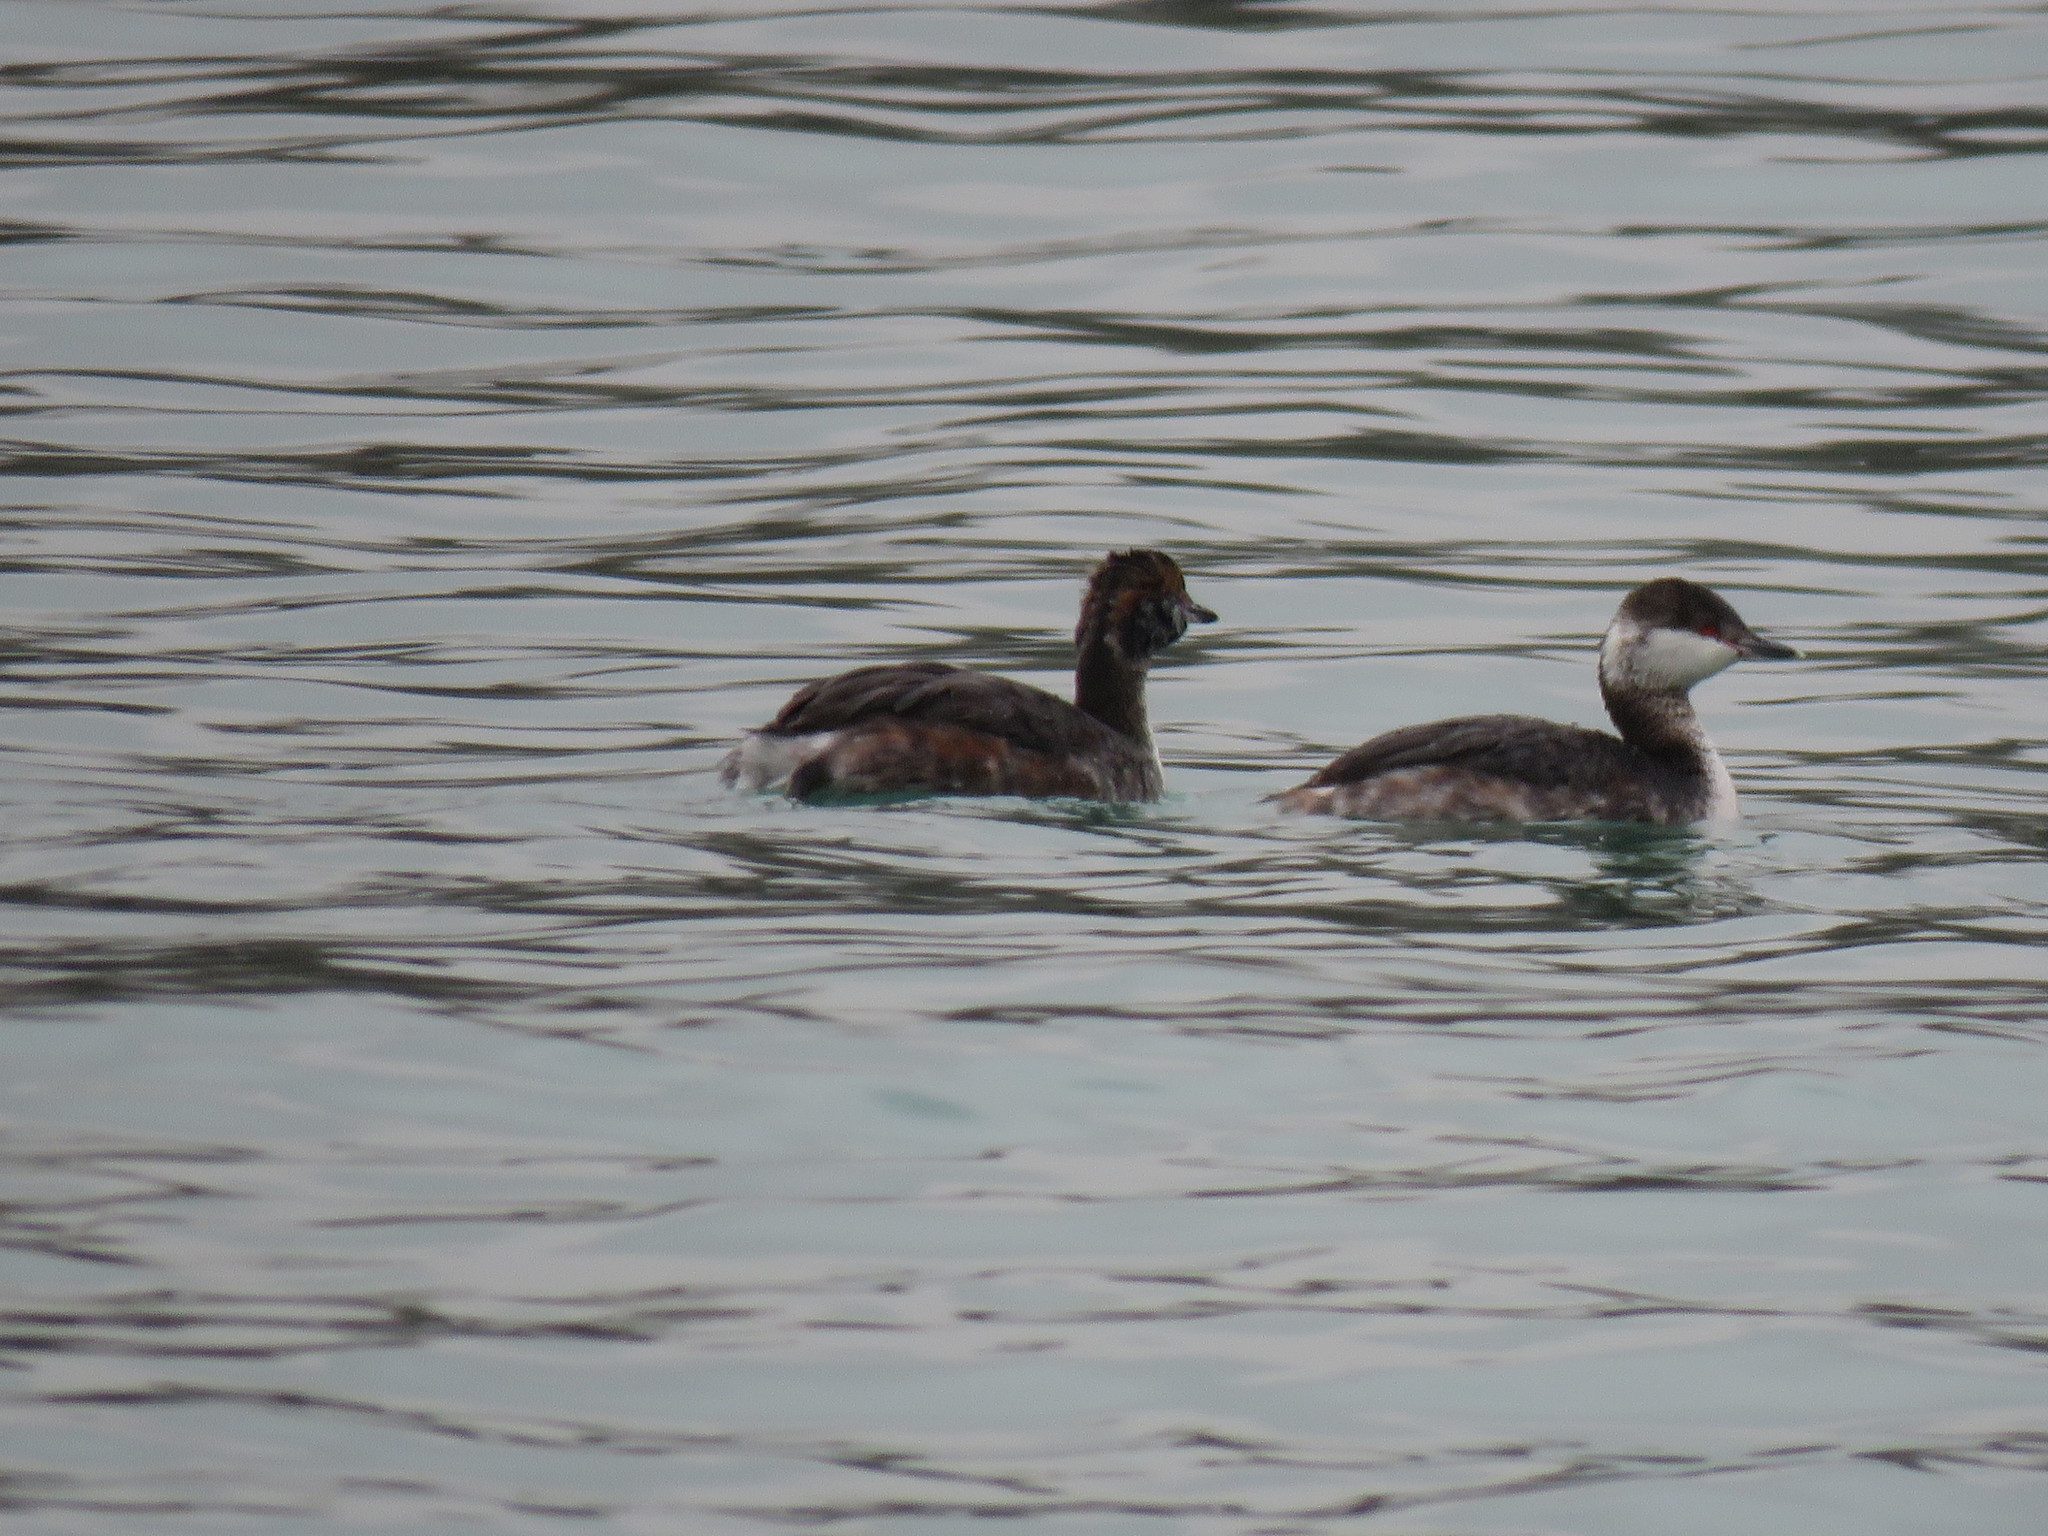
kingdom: Animalia
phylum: Chordata
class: Aves
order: Podicipediformes
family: Podicipedidae
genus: Podiceps
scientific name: Podiceps auritus
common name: Horned grebe
